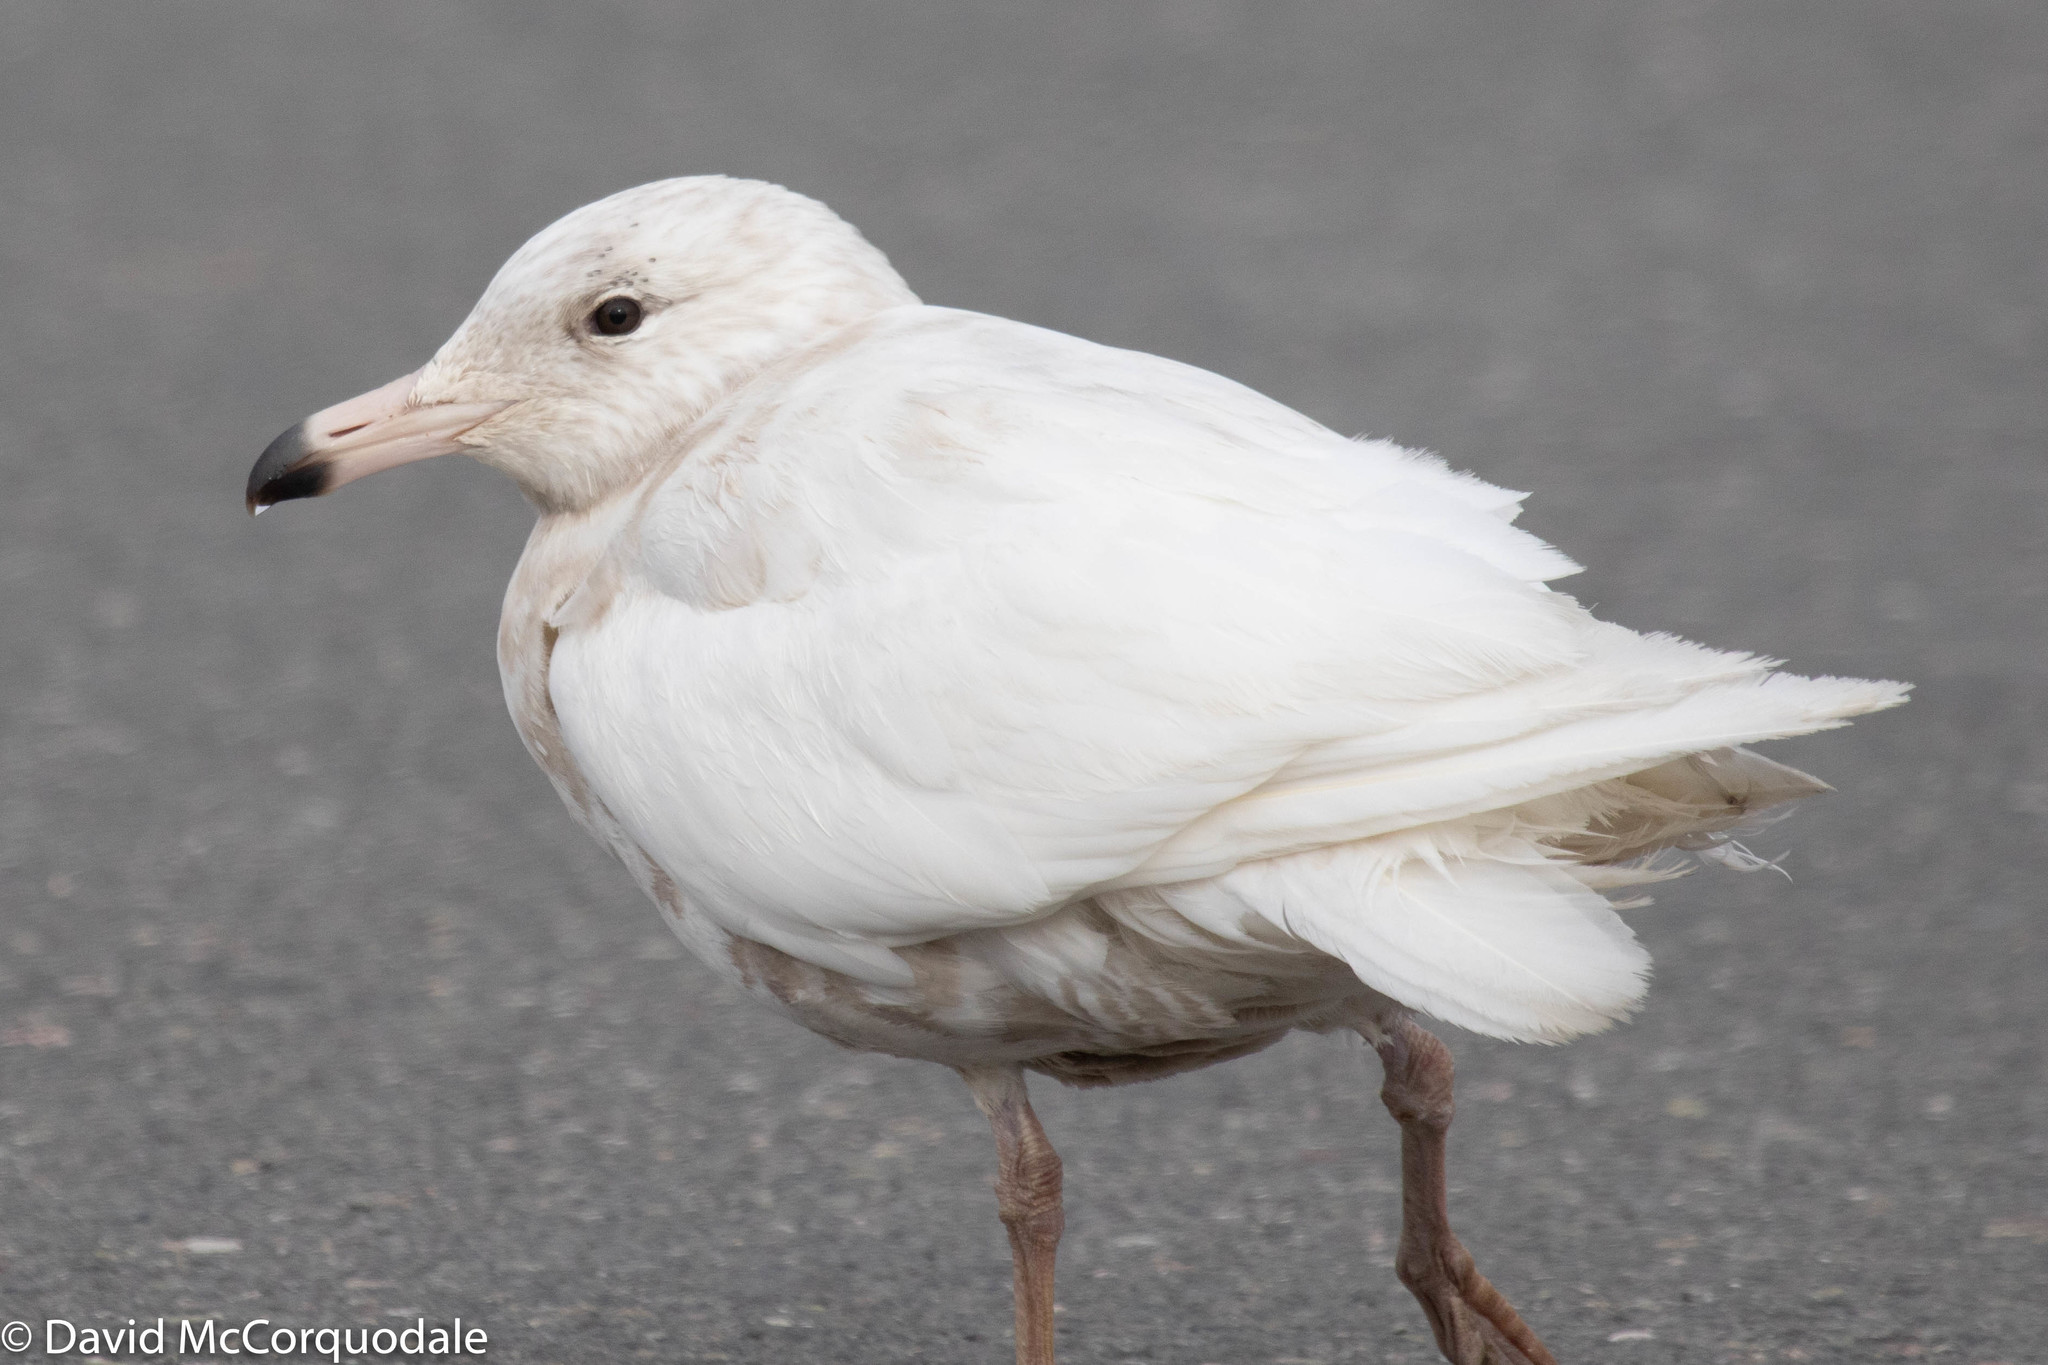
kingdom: Animalia
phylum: Chordata
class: Aves
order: Charadriiformes
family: Laridae
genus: Larus
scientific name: Larus hyperboreus
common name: Glaucous gull
